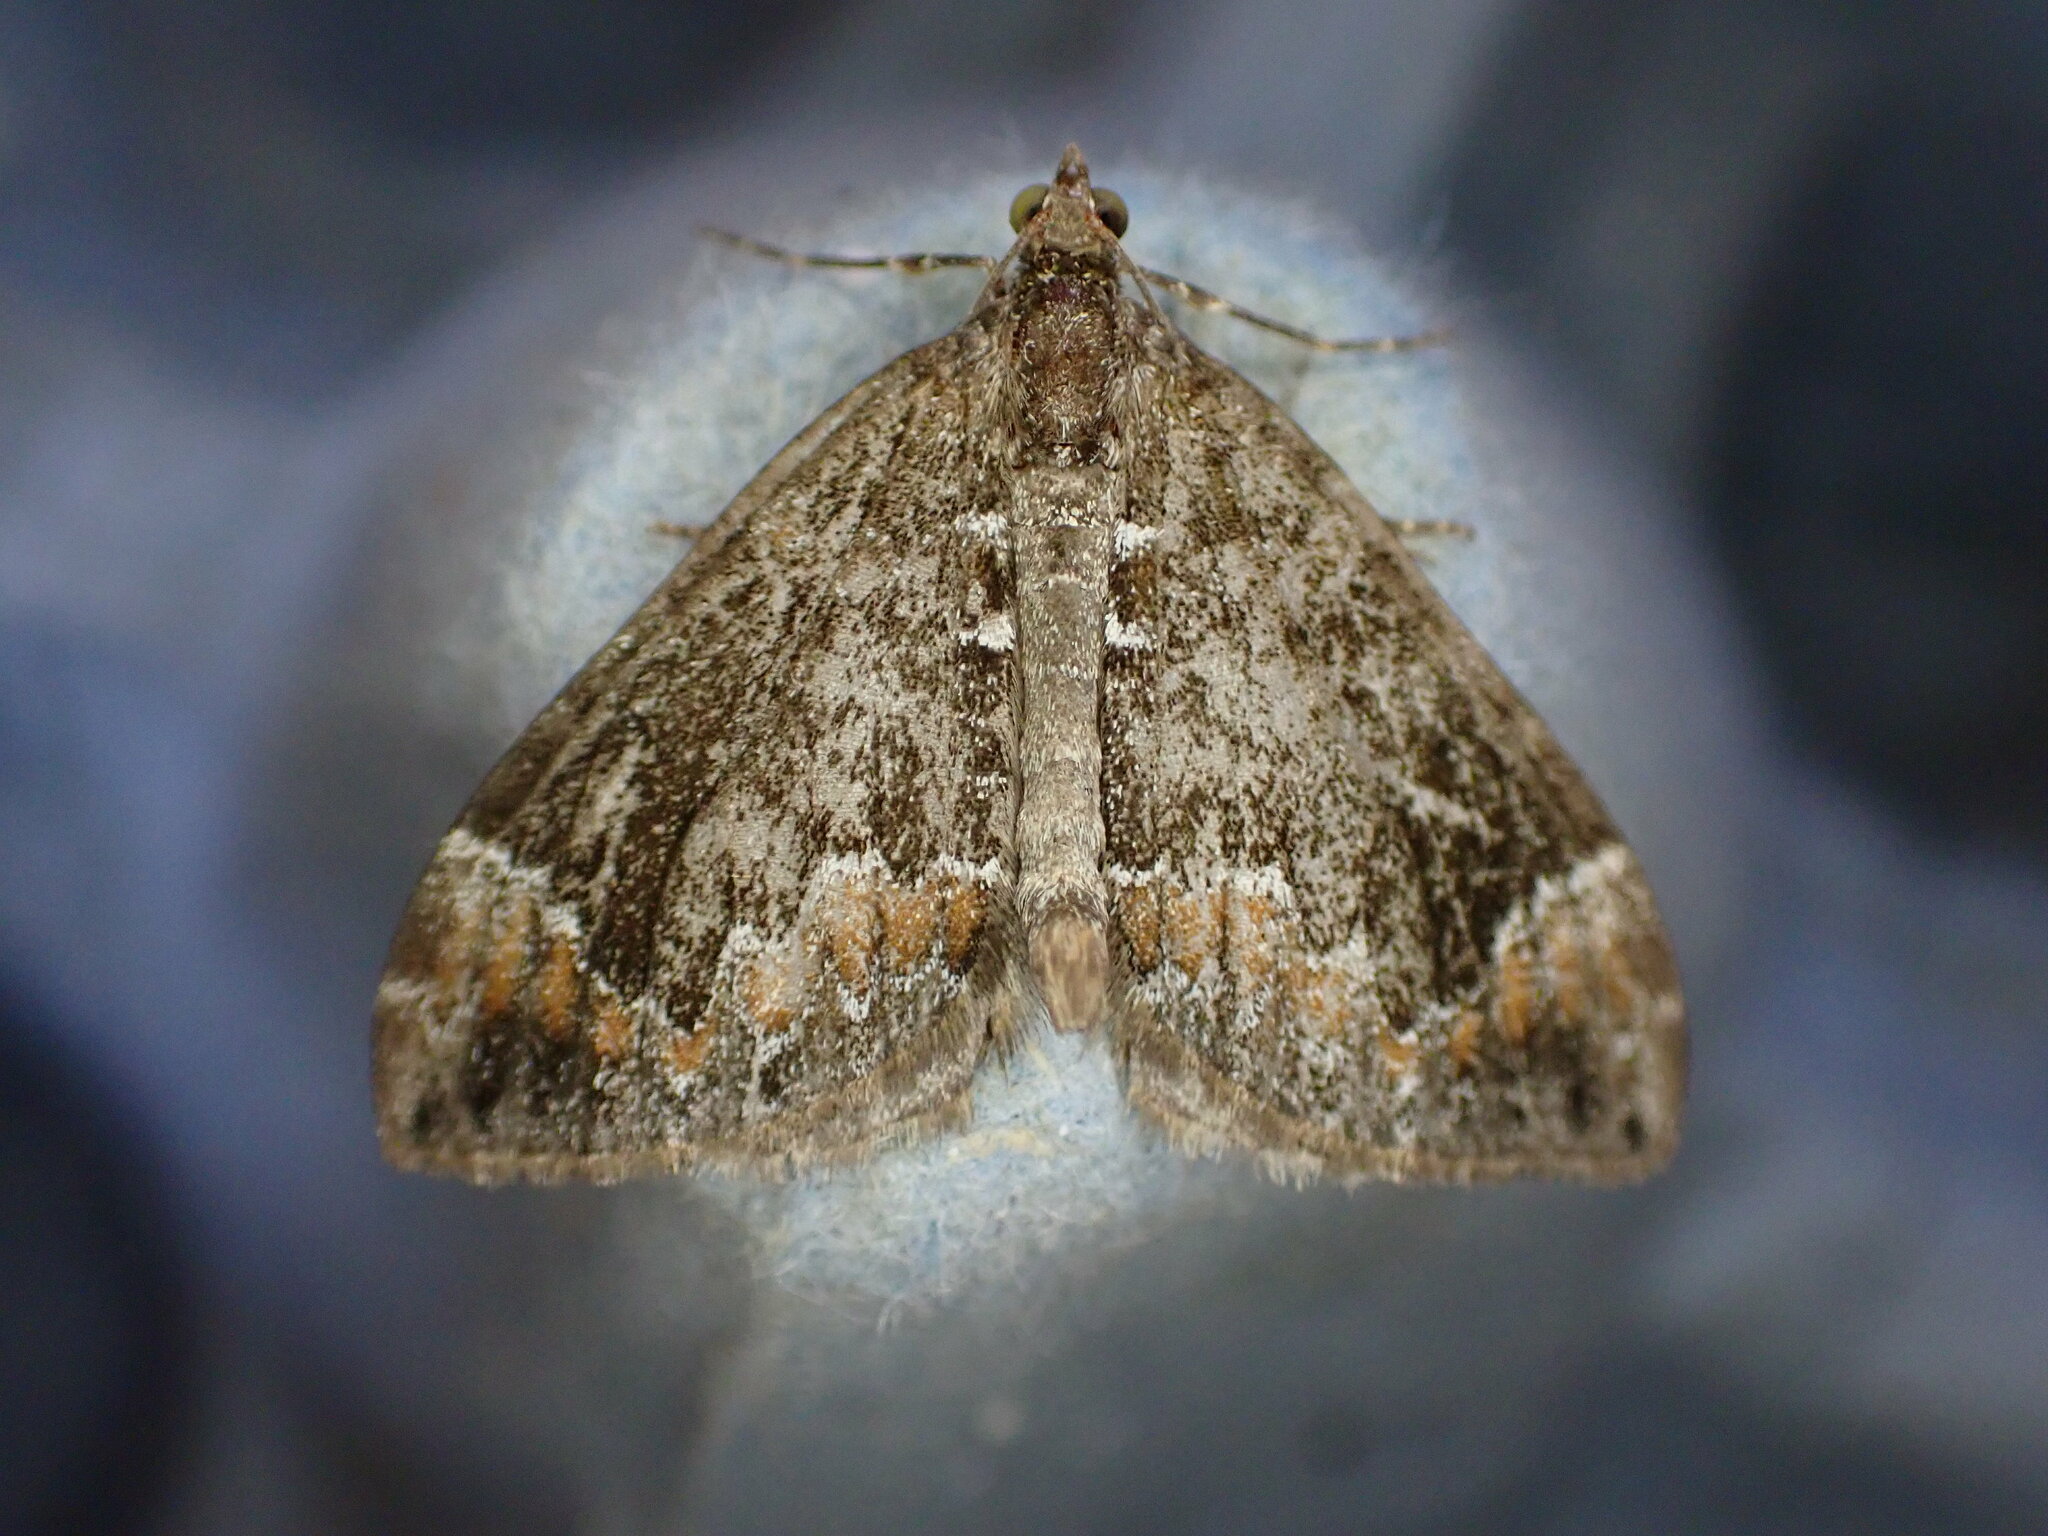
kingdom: Animalia
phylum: Arthropoda
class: Insecta
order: Lepidoptera
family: Geometridae
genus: Dysstroma
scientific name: Dysstroma truncata
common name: Common marbled carpet
